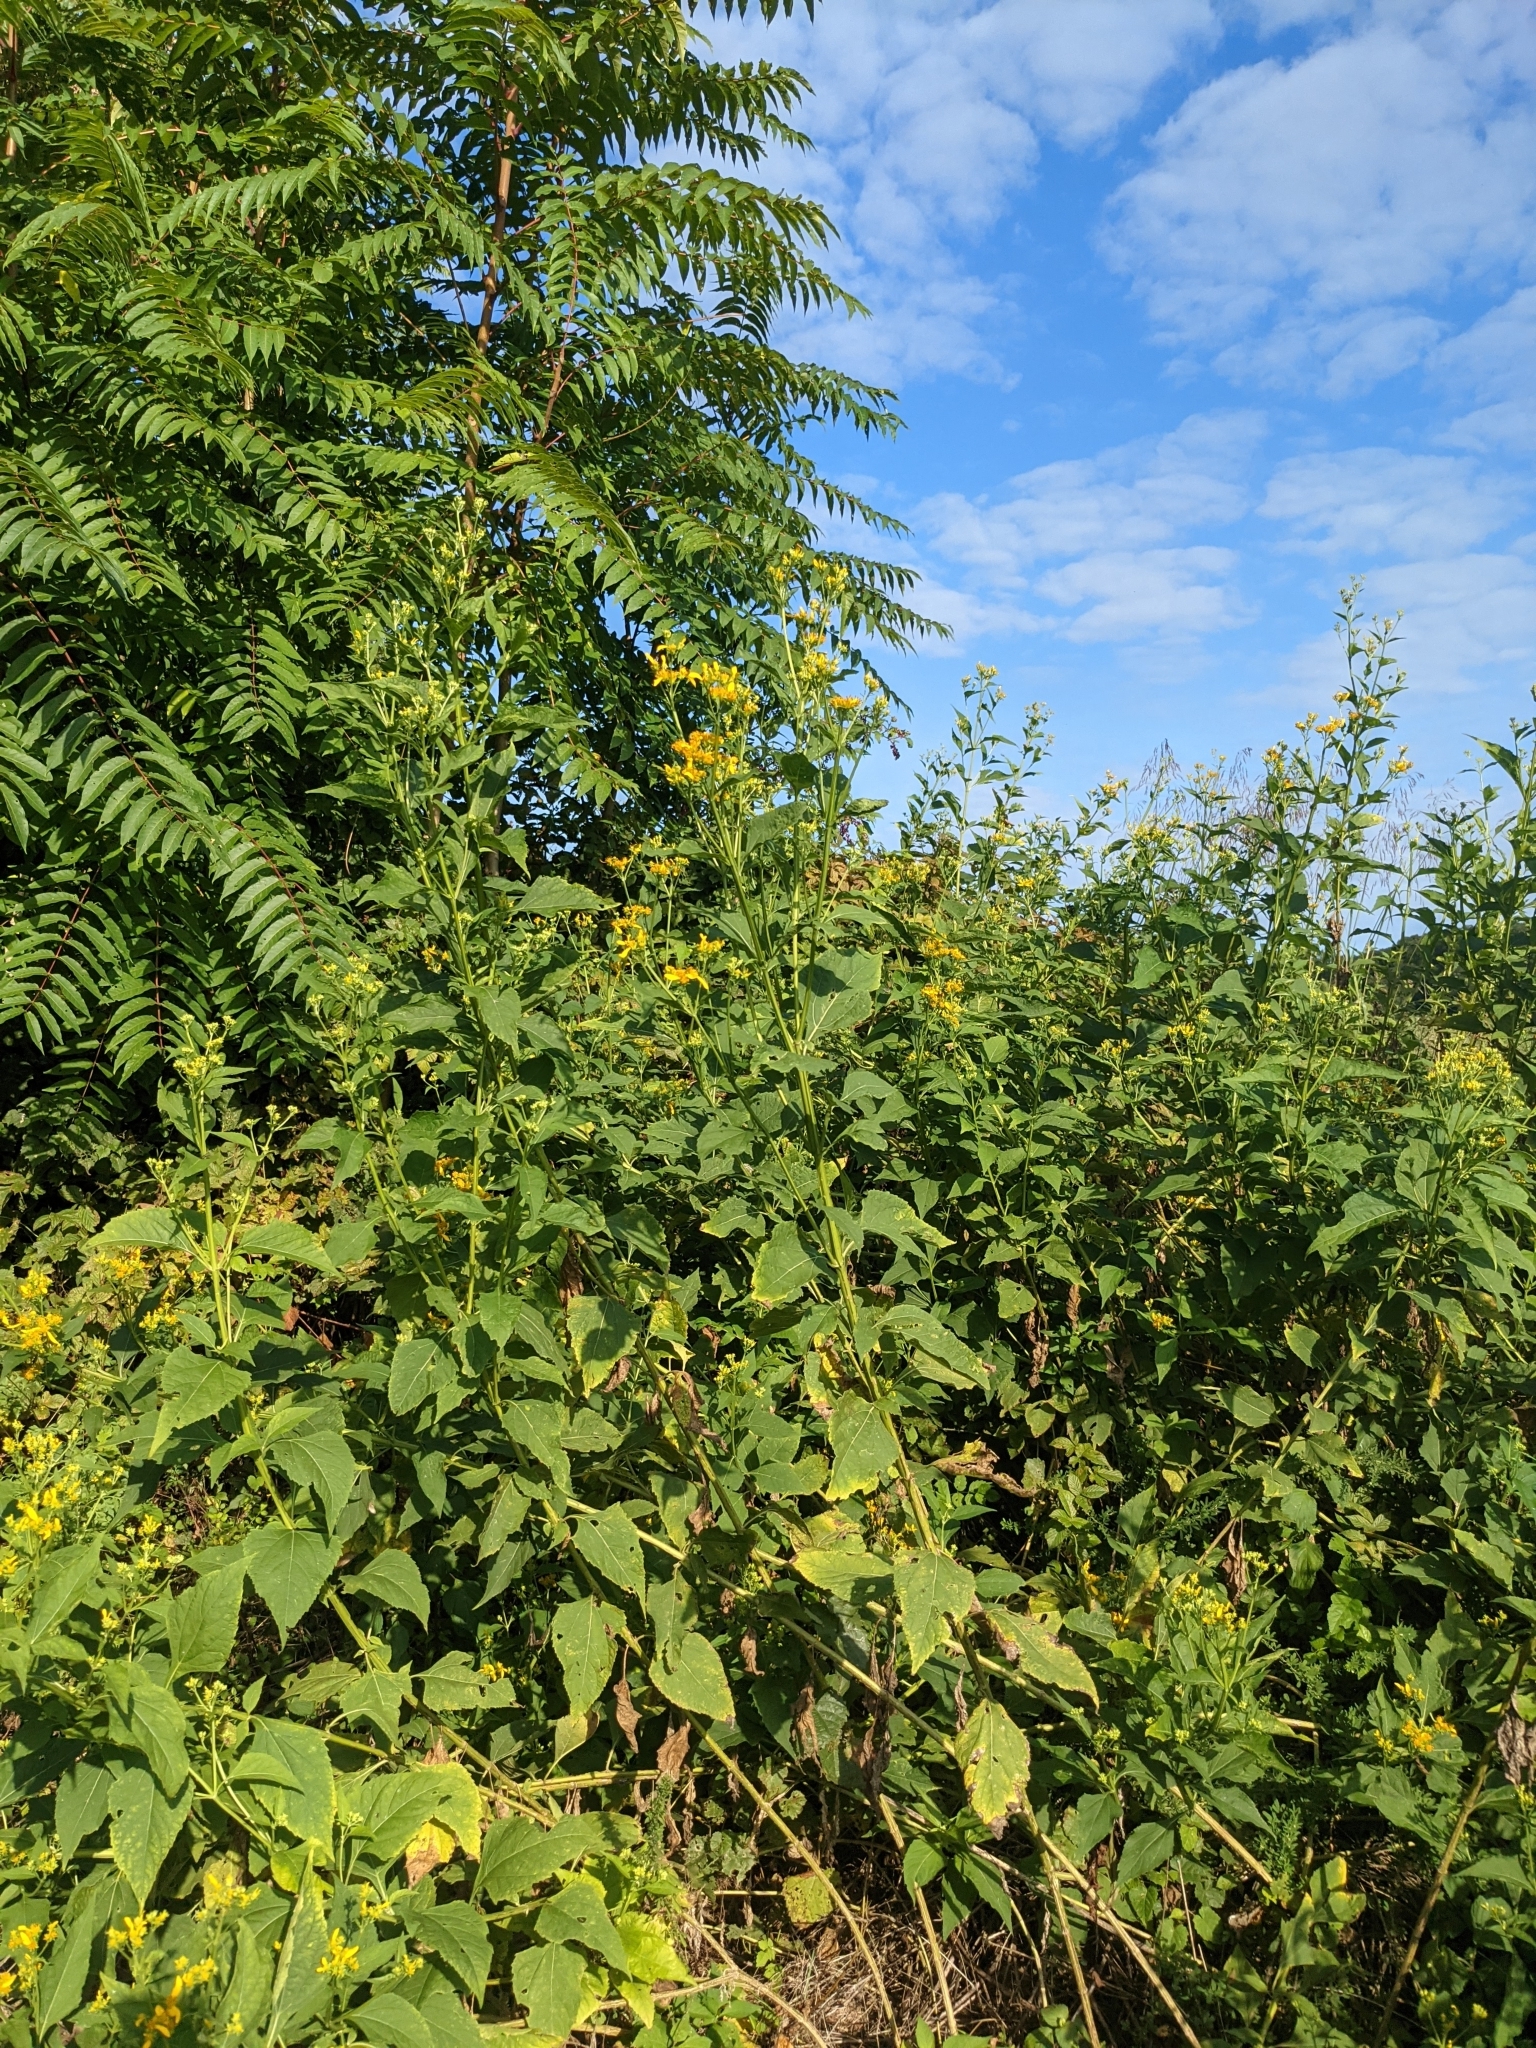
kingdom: Plantae
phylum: Tracheophyta
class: Magnoliopsida
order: Asterales
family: Asteraceae
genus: Verbesina
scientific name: Verbesina occidentalis
